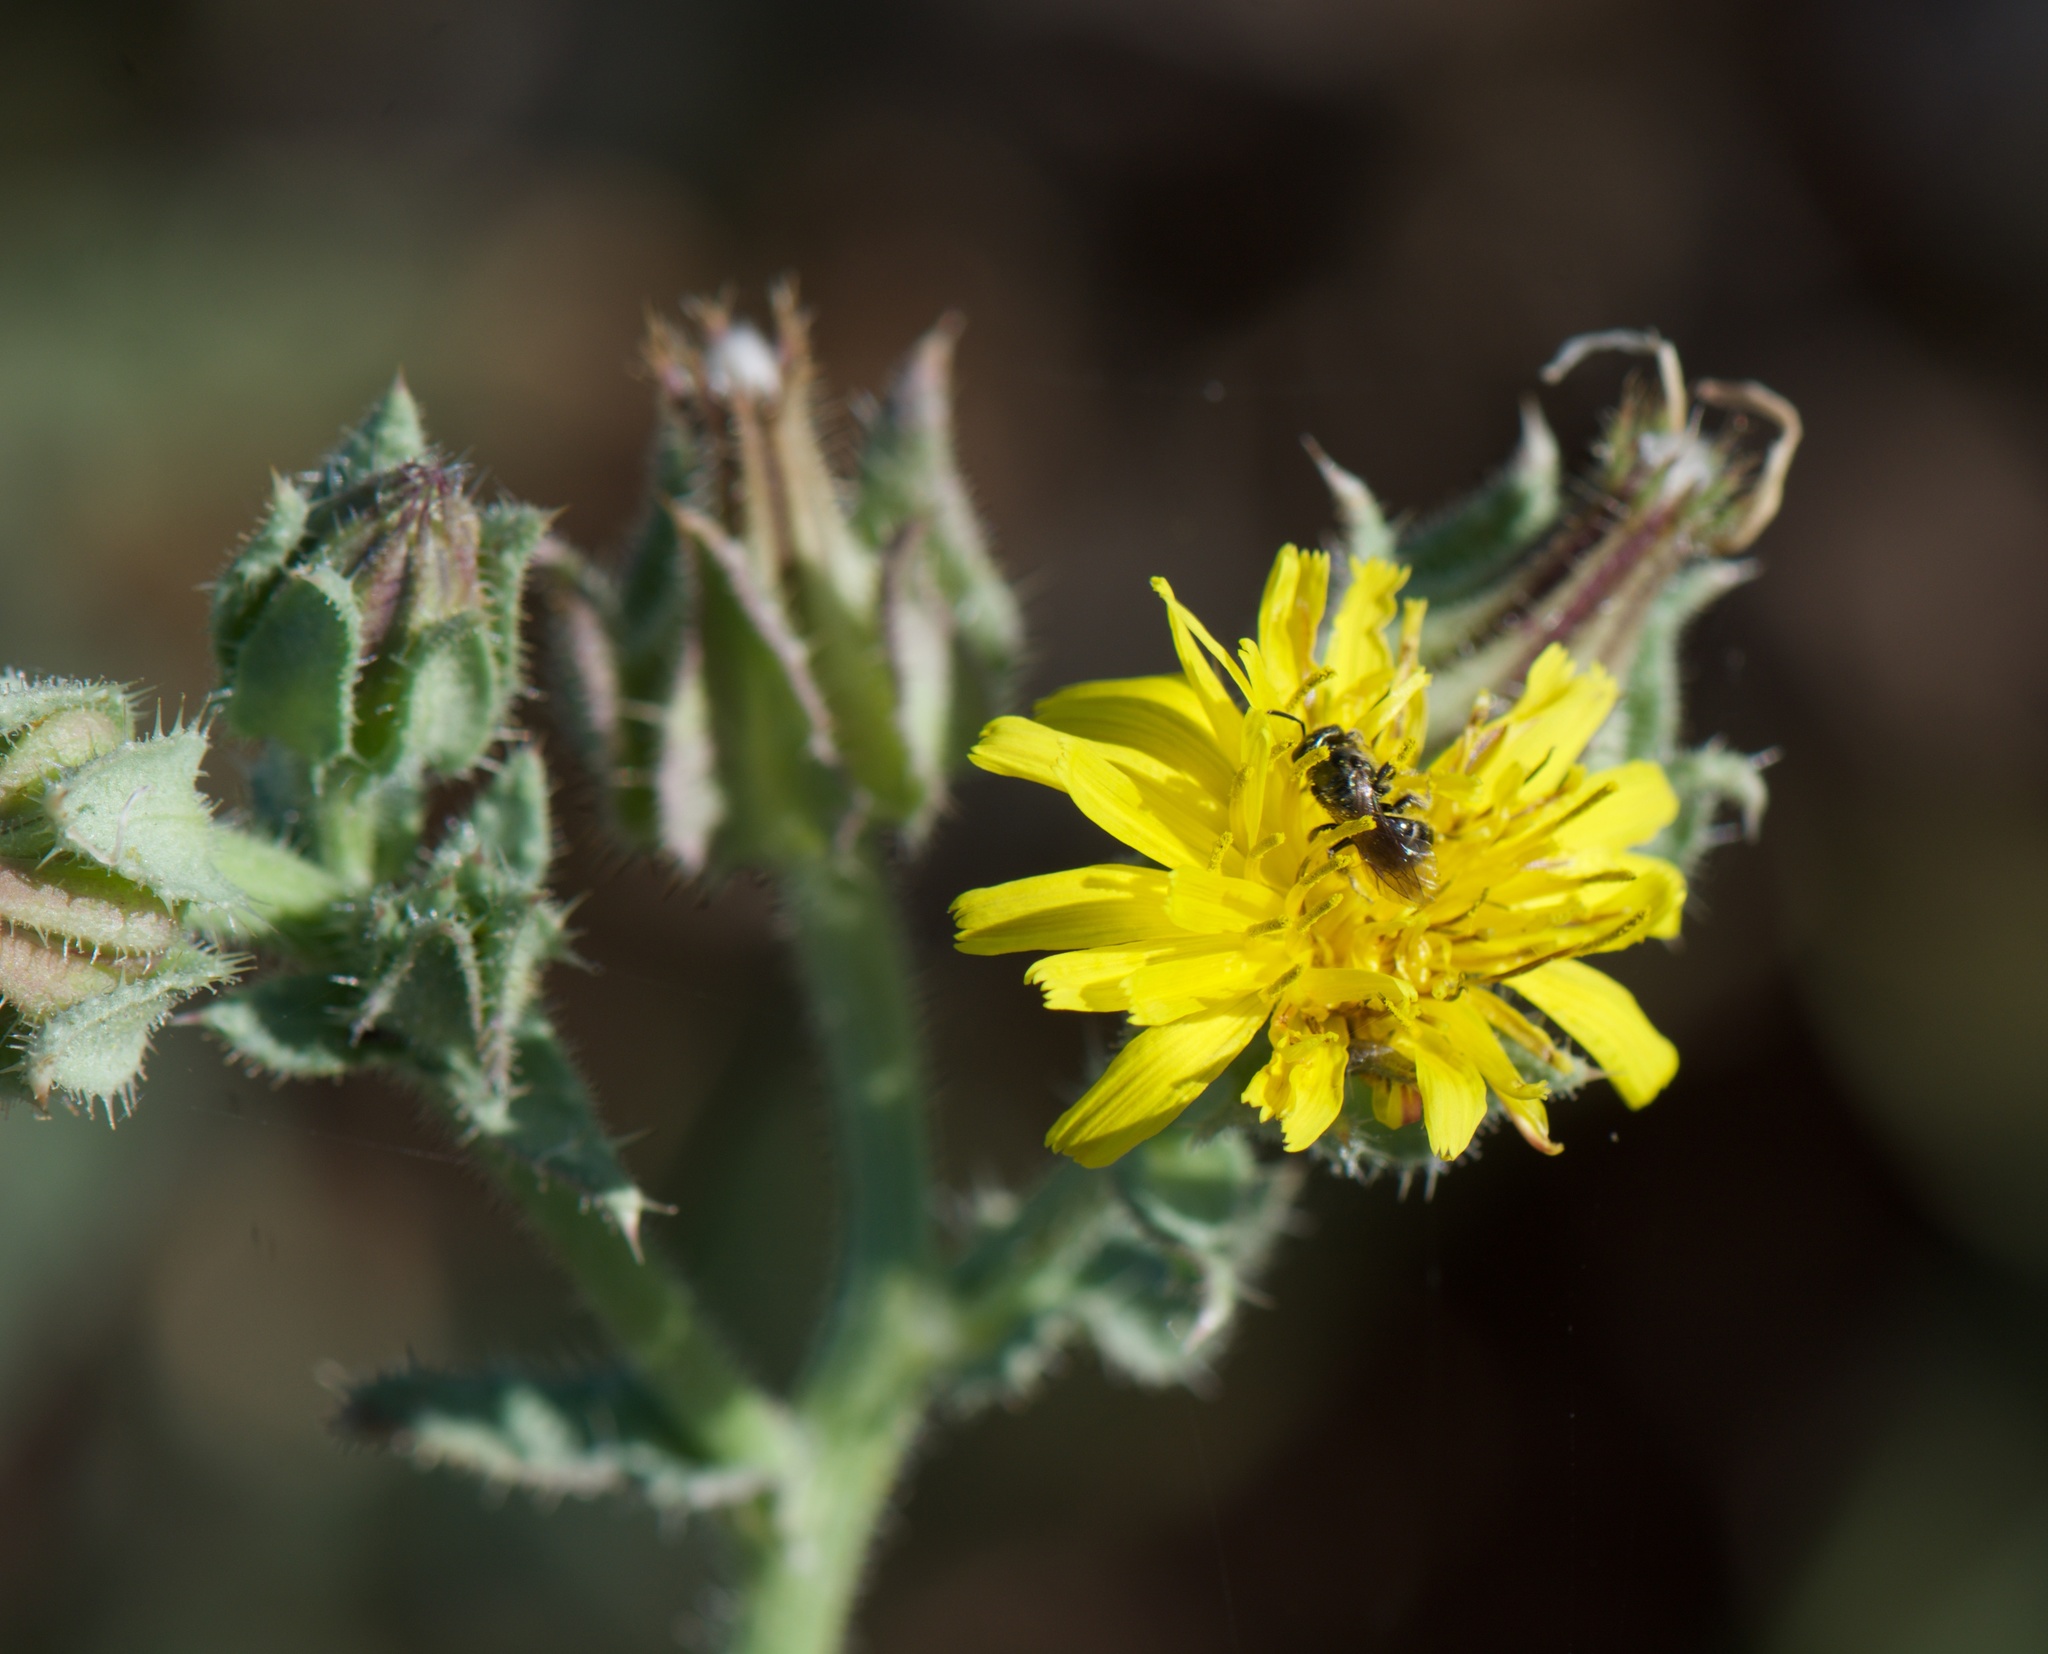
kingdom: Plantae
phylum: Tracheophyta
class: Magnoliopsida
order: Asterales
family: Asteraceae
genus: Helminthotheca
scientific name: Helminthotheca echioides
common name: Ox-tongue
